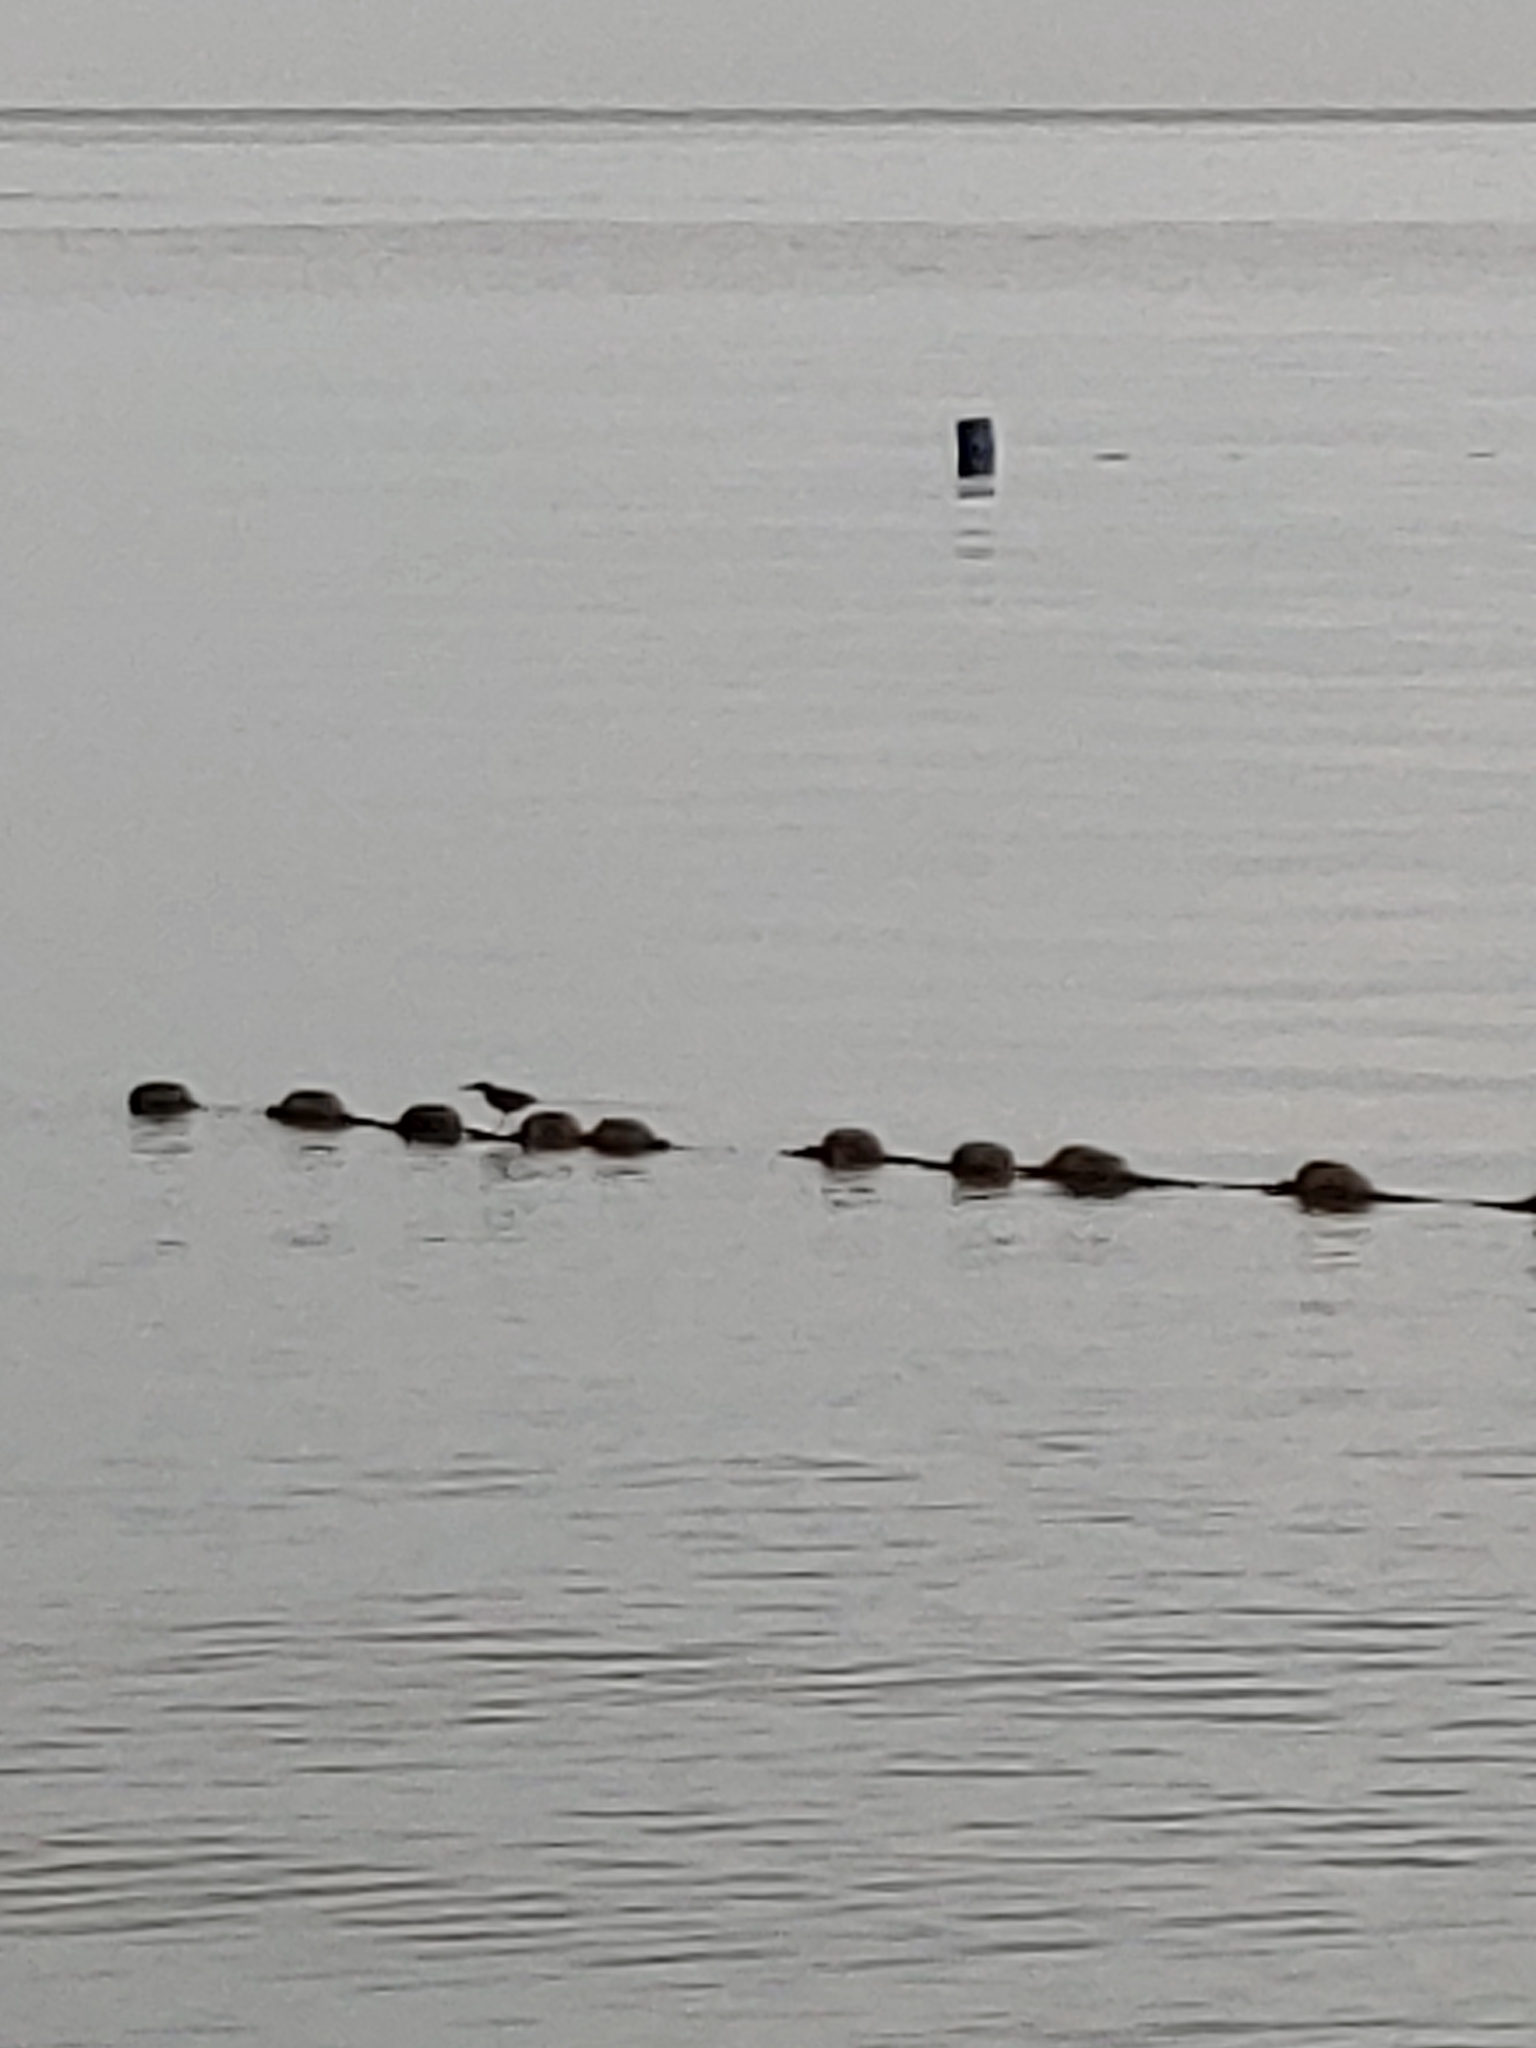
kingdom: Animalia
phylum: Chordata
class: Aves
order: Pelecaniformes
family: Ardeidae
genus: Butorides
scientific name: Butorides striata
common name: Striated heron
